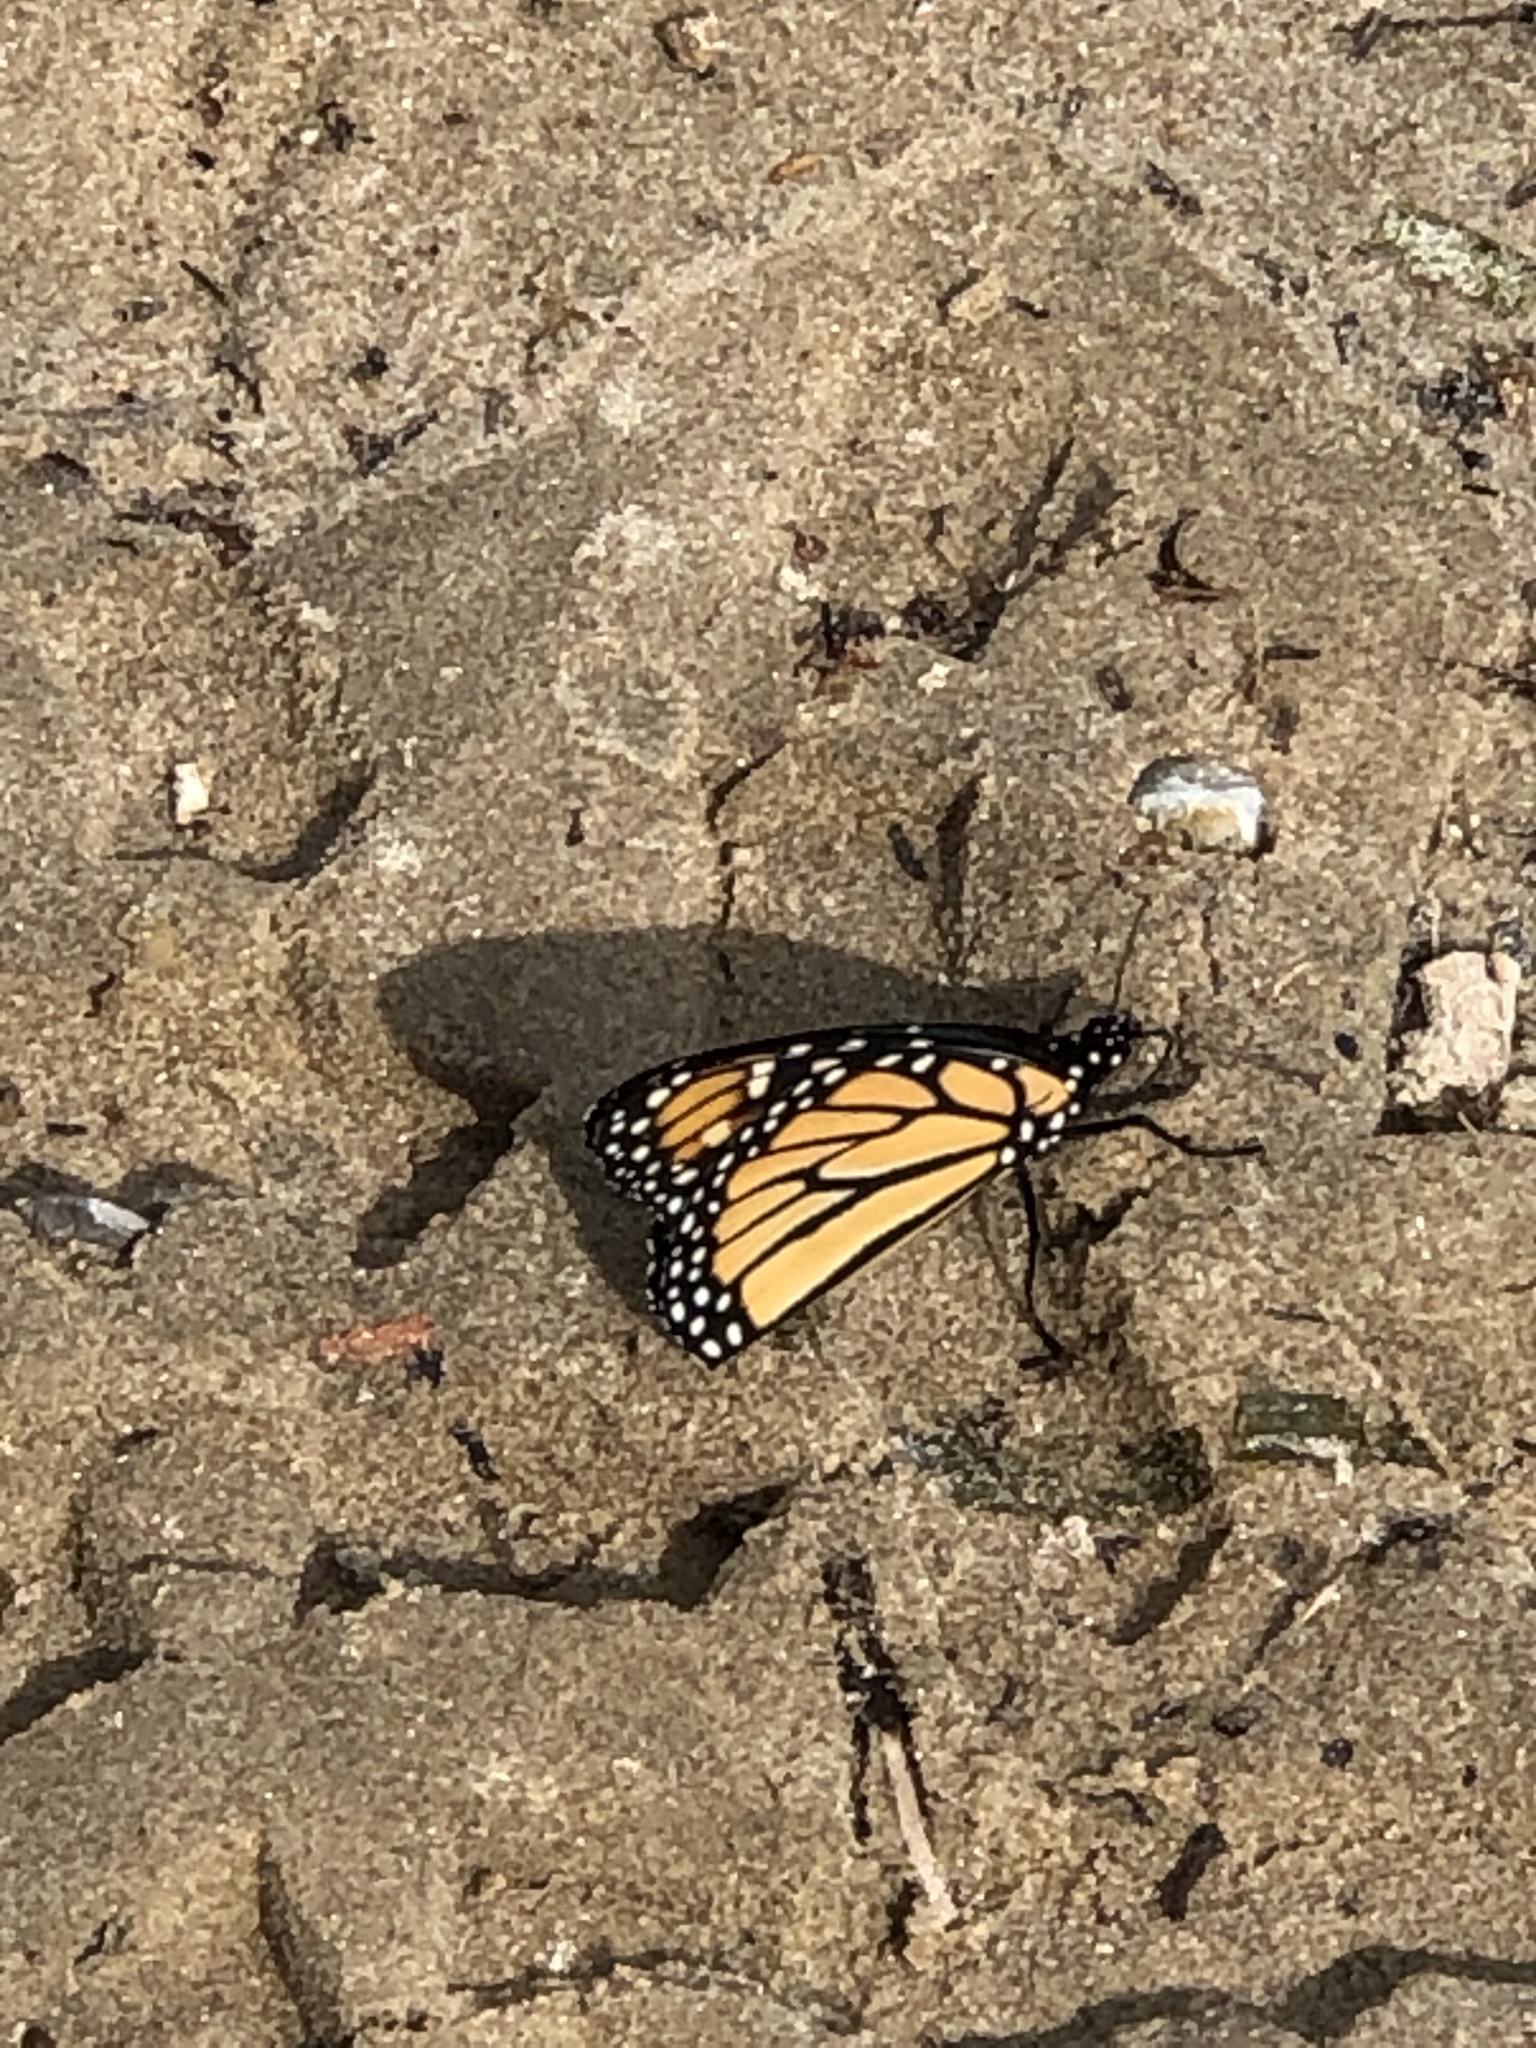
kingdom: Animalia
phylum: Arthropoda
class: Insecta
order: Lepidoptera
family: Nymphalidae
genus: Danaus
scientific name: Danaus plexippus
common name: Monarch
